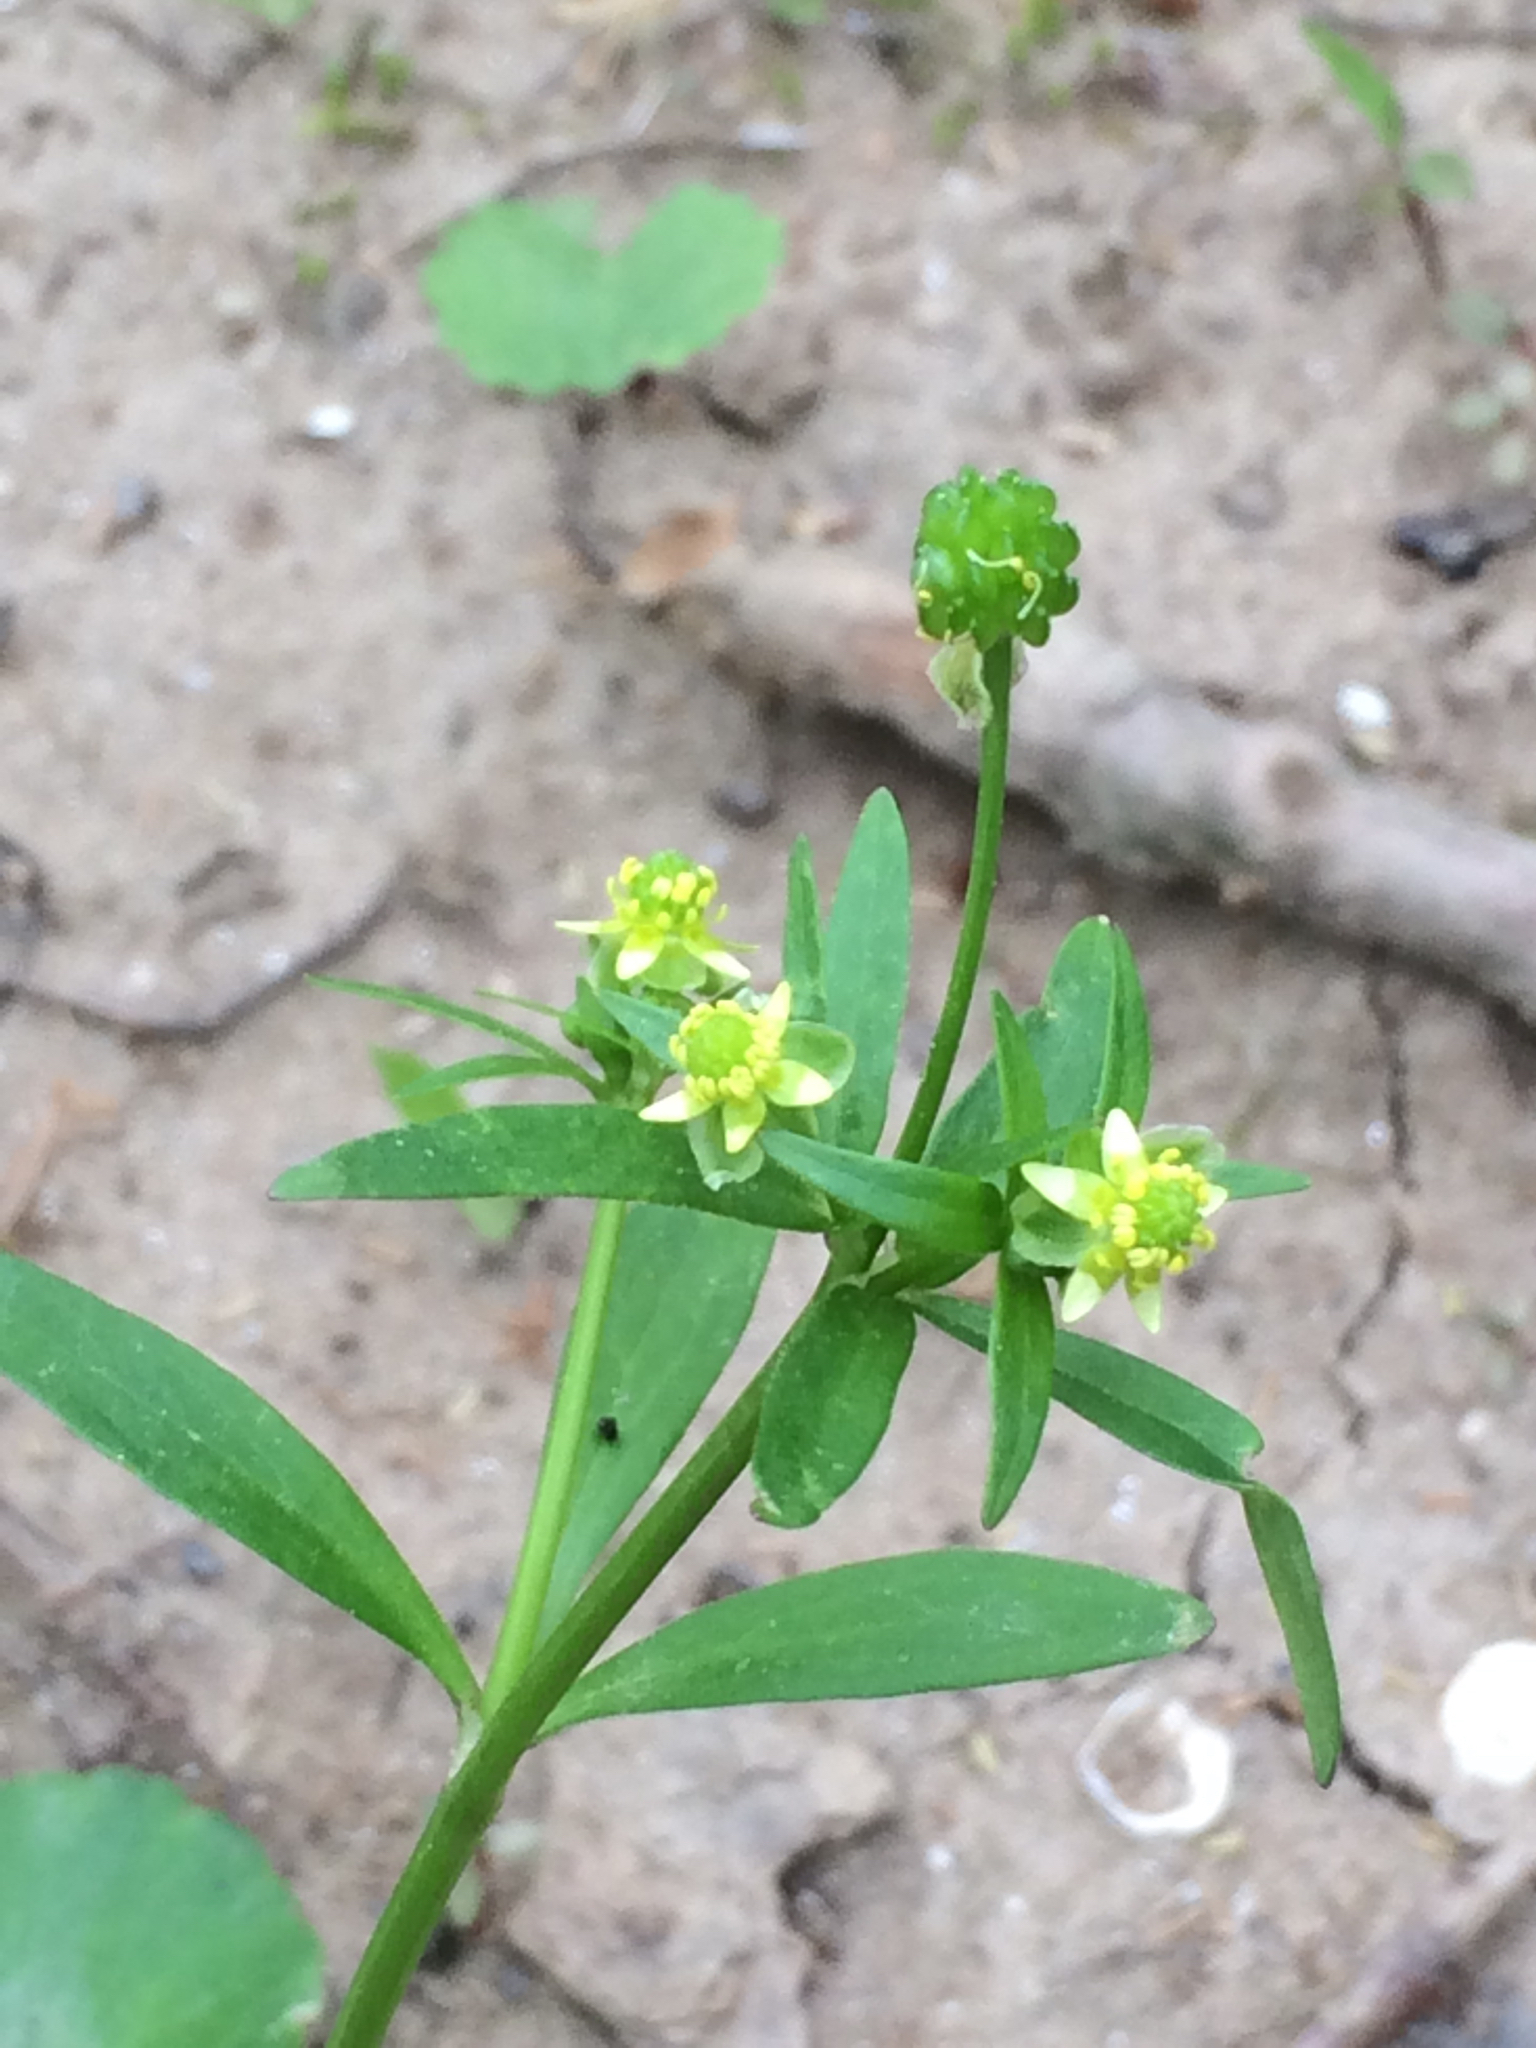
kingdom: Plantae
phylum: Tracheophyta
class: Magnoliopsida
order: Ranunculales
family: Ranunculaceae
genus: Ranunculus
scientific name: Ranunculus abortivus
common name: Early wood buttercup
